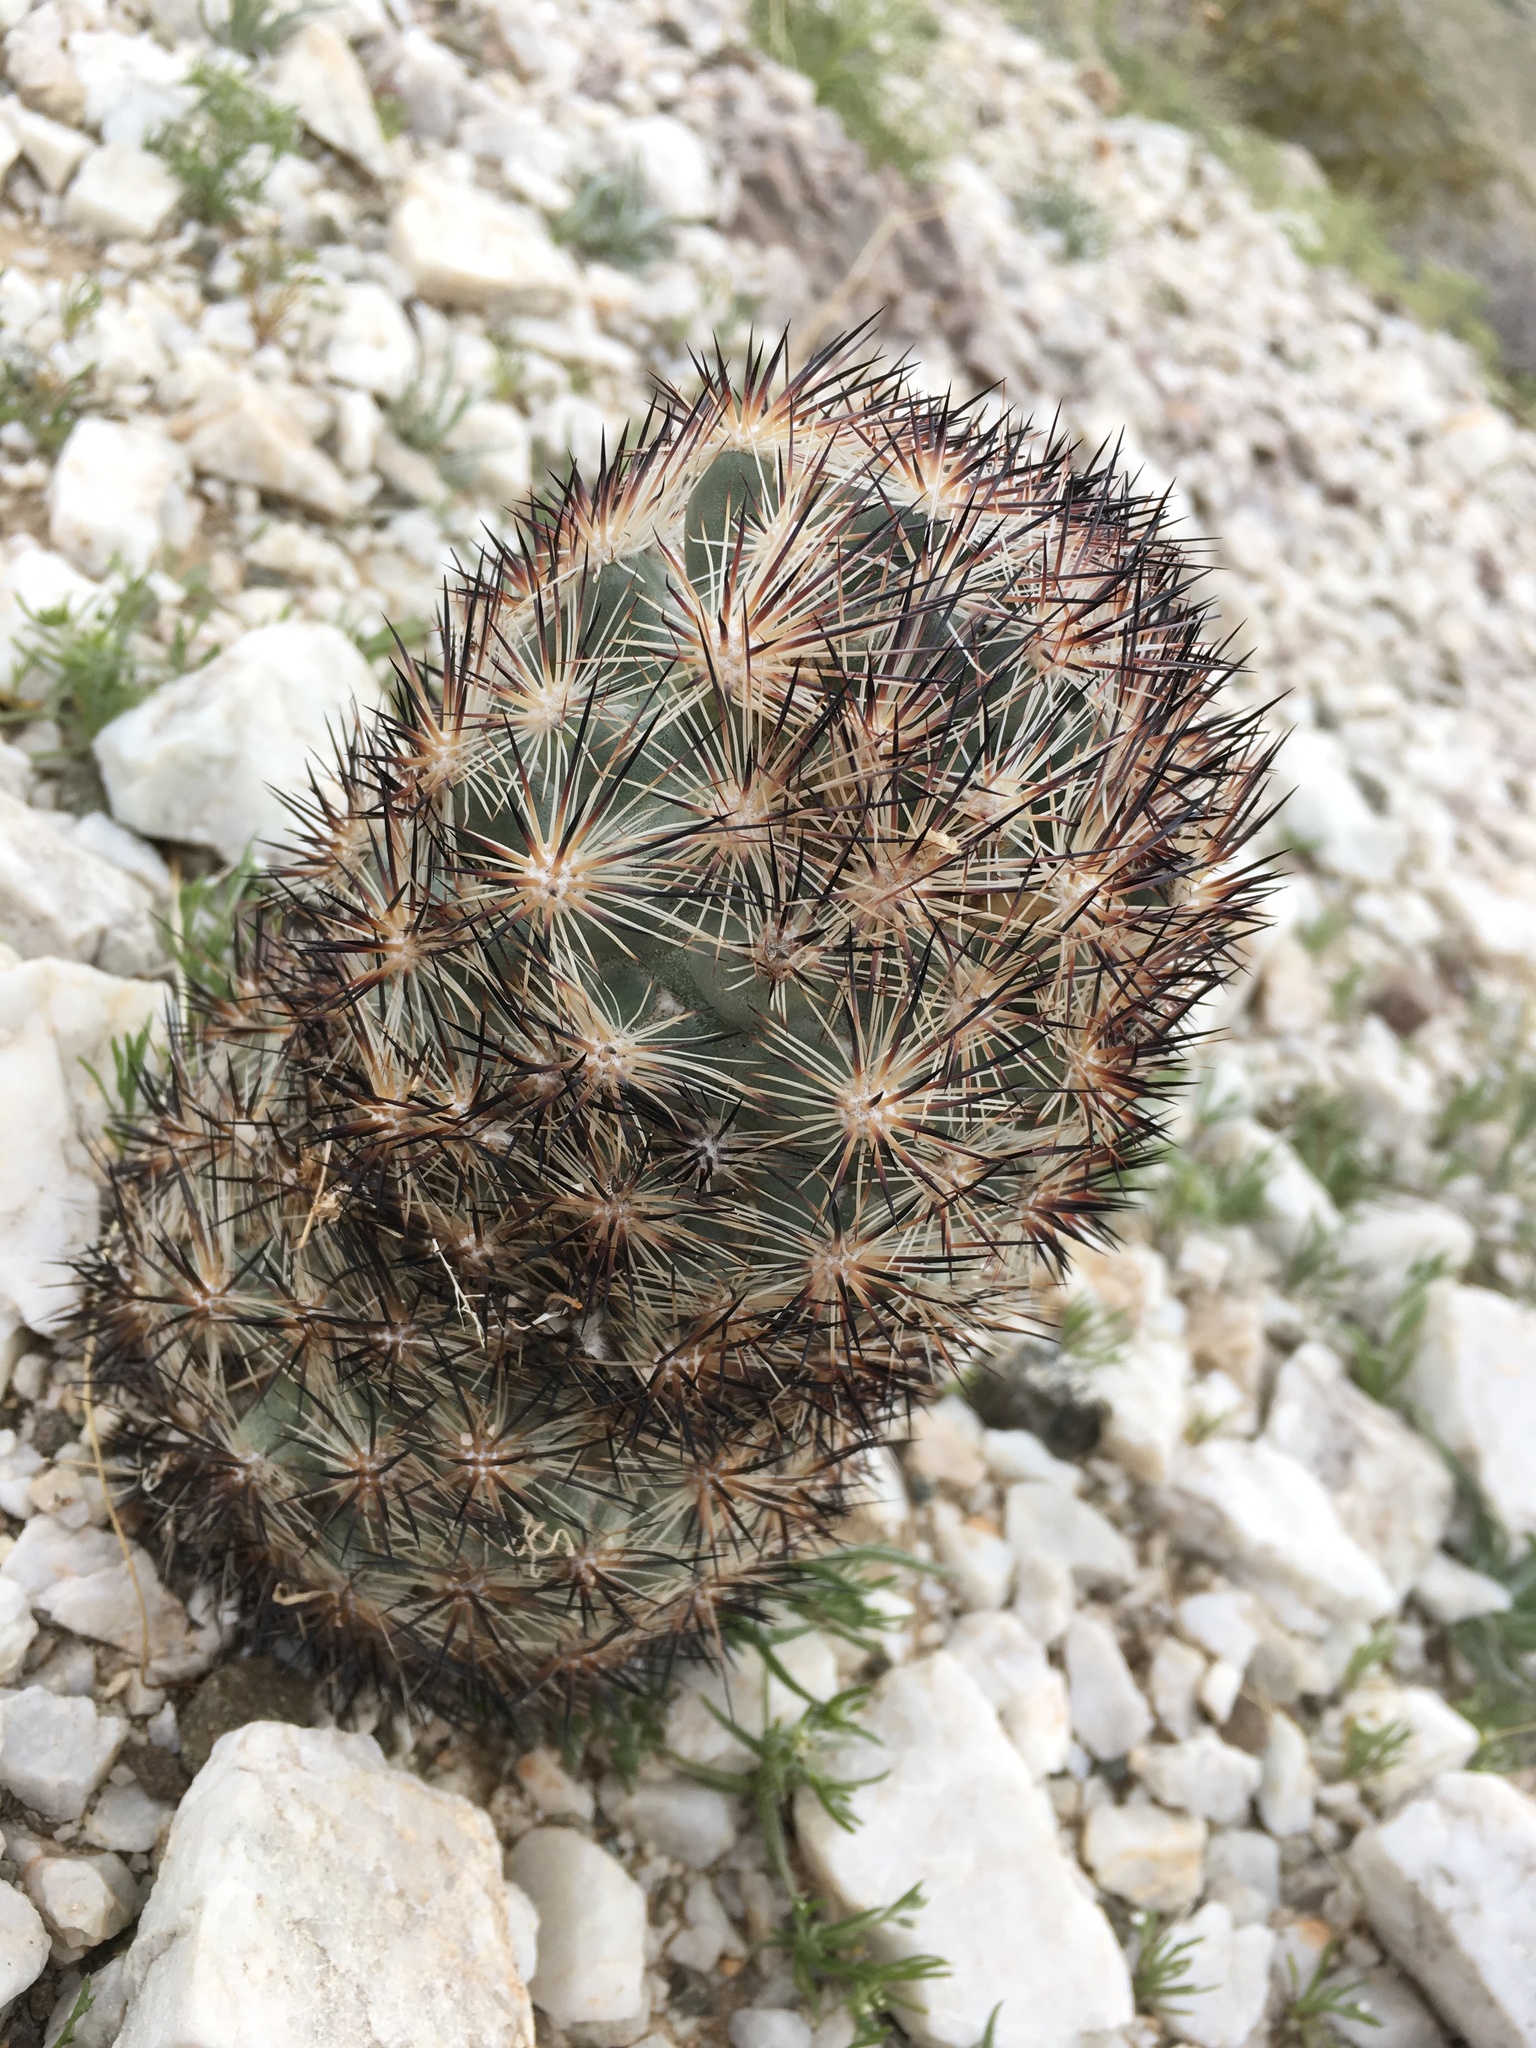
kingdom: Plantae
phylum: Tracheophyta
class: Magnoliopsida
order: Caryophyllales
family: Cactaceae
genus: Pelecyphora
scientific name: Pelecyphora alversonii
